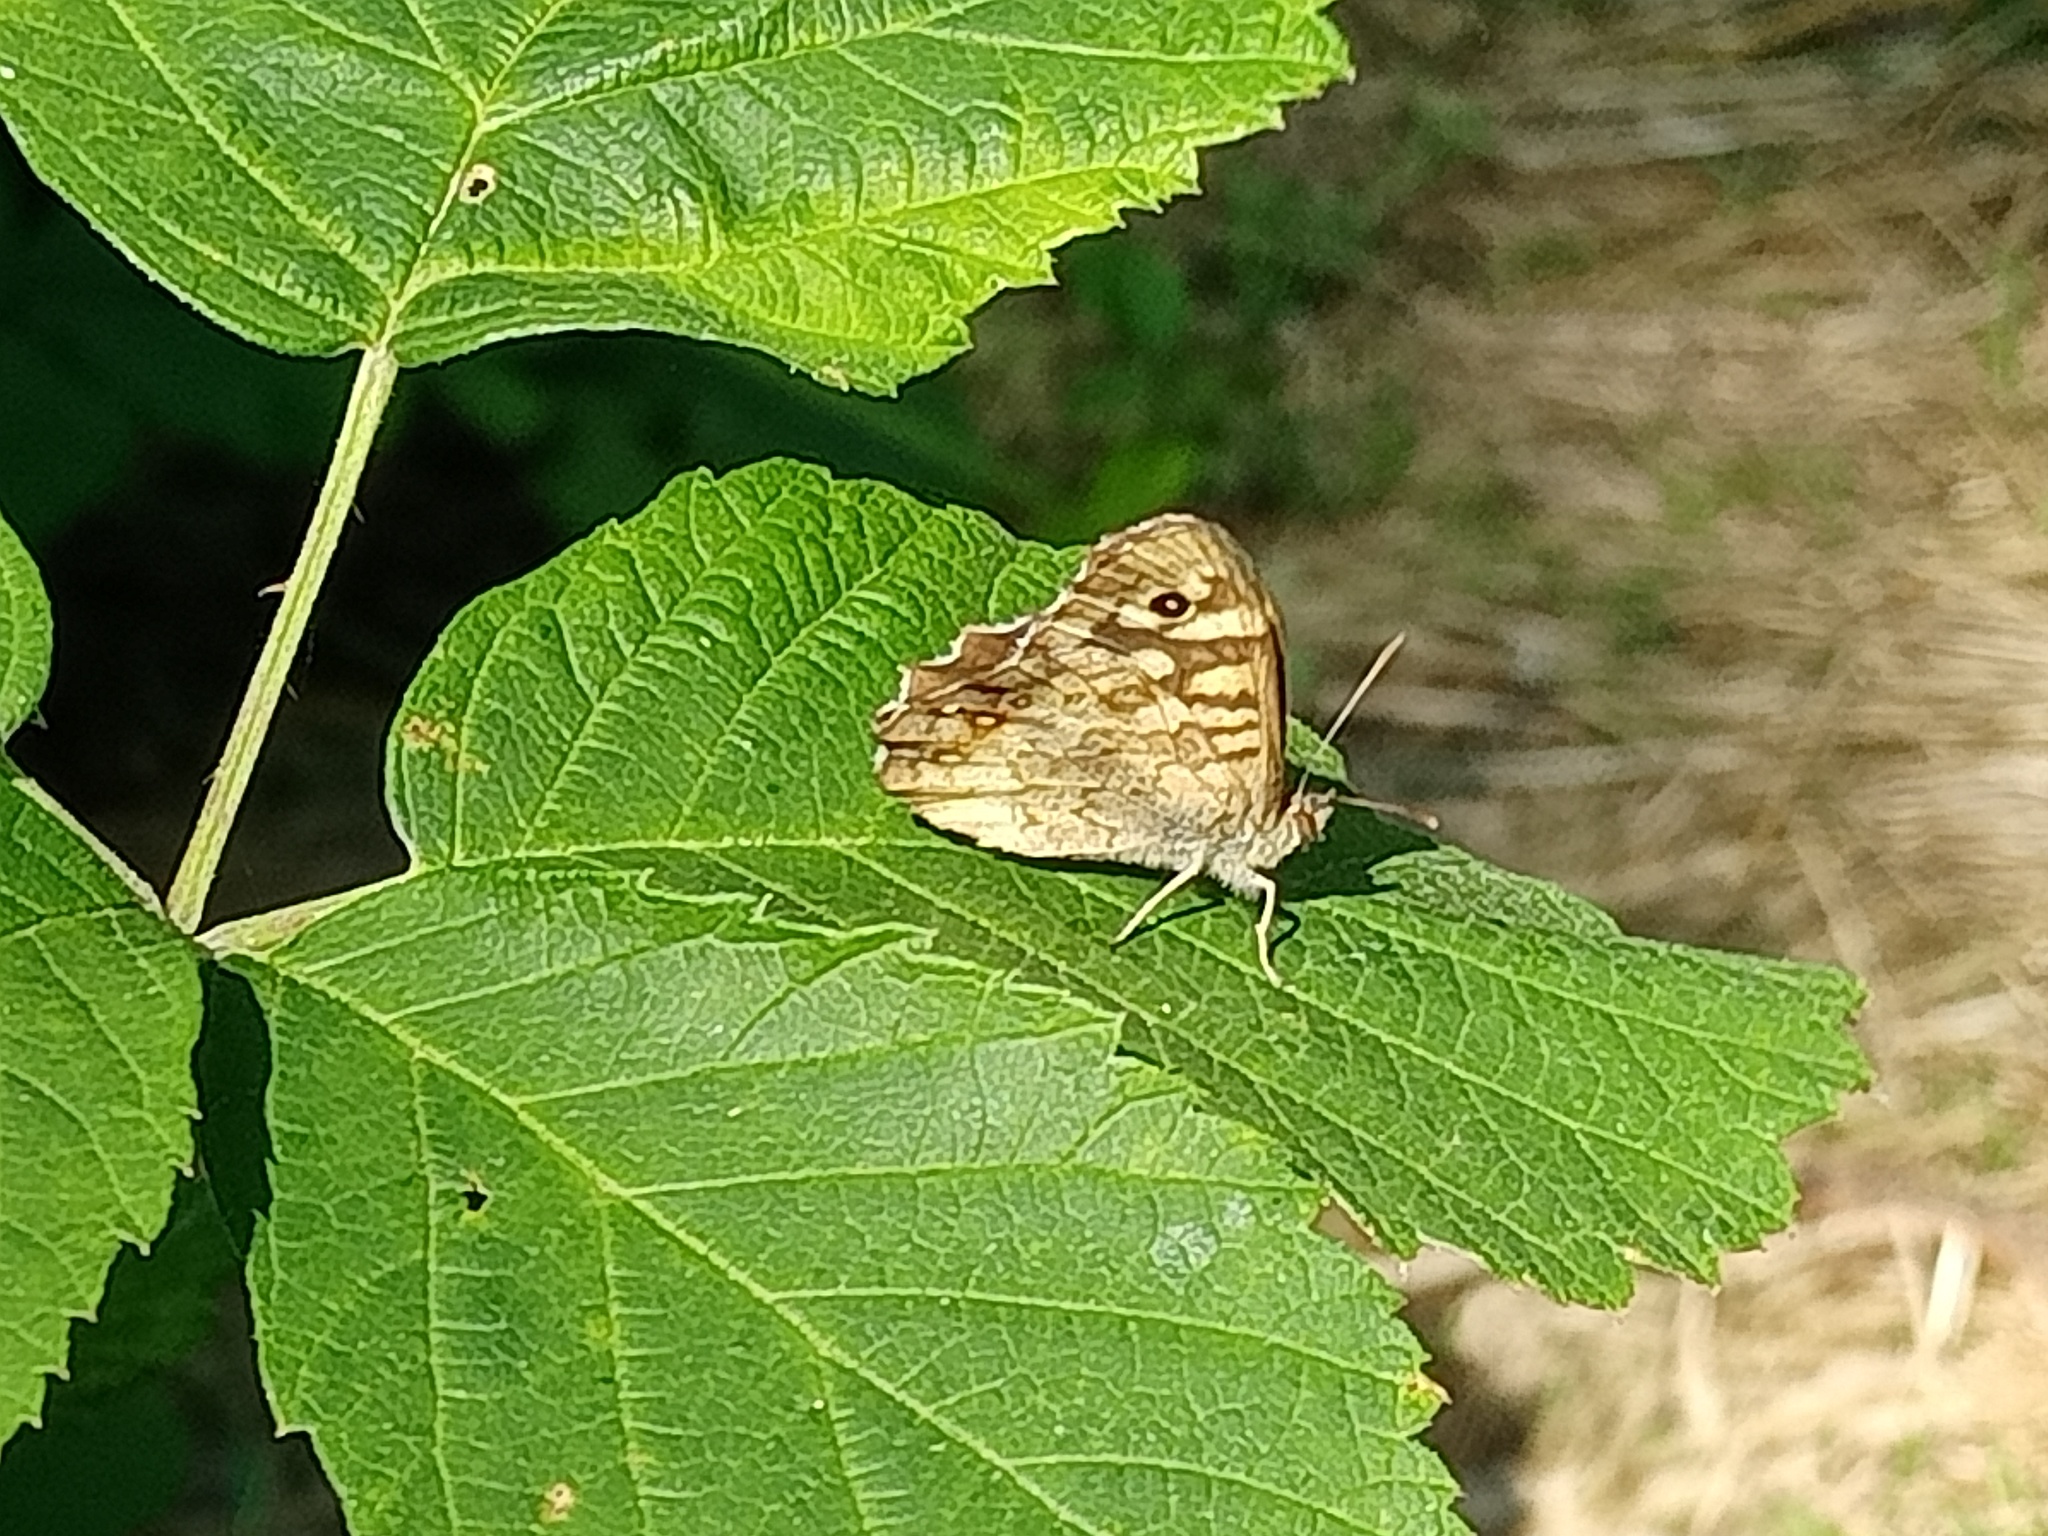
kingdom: Animalia
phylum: Arthropoda
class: Insecta
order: Lepidoptera
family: Nymphalidae
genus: Pararge
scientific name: Pararge aegeria
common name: Speckled wood
